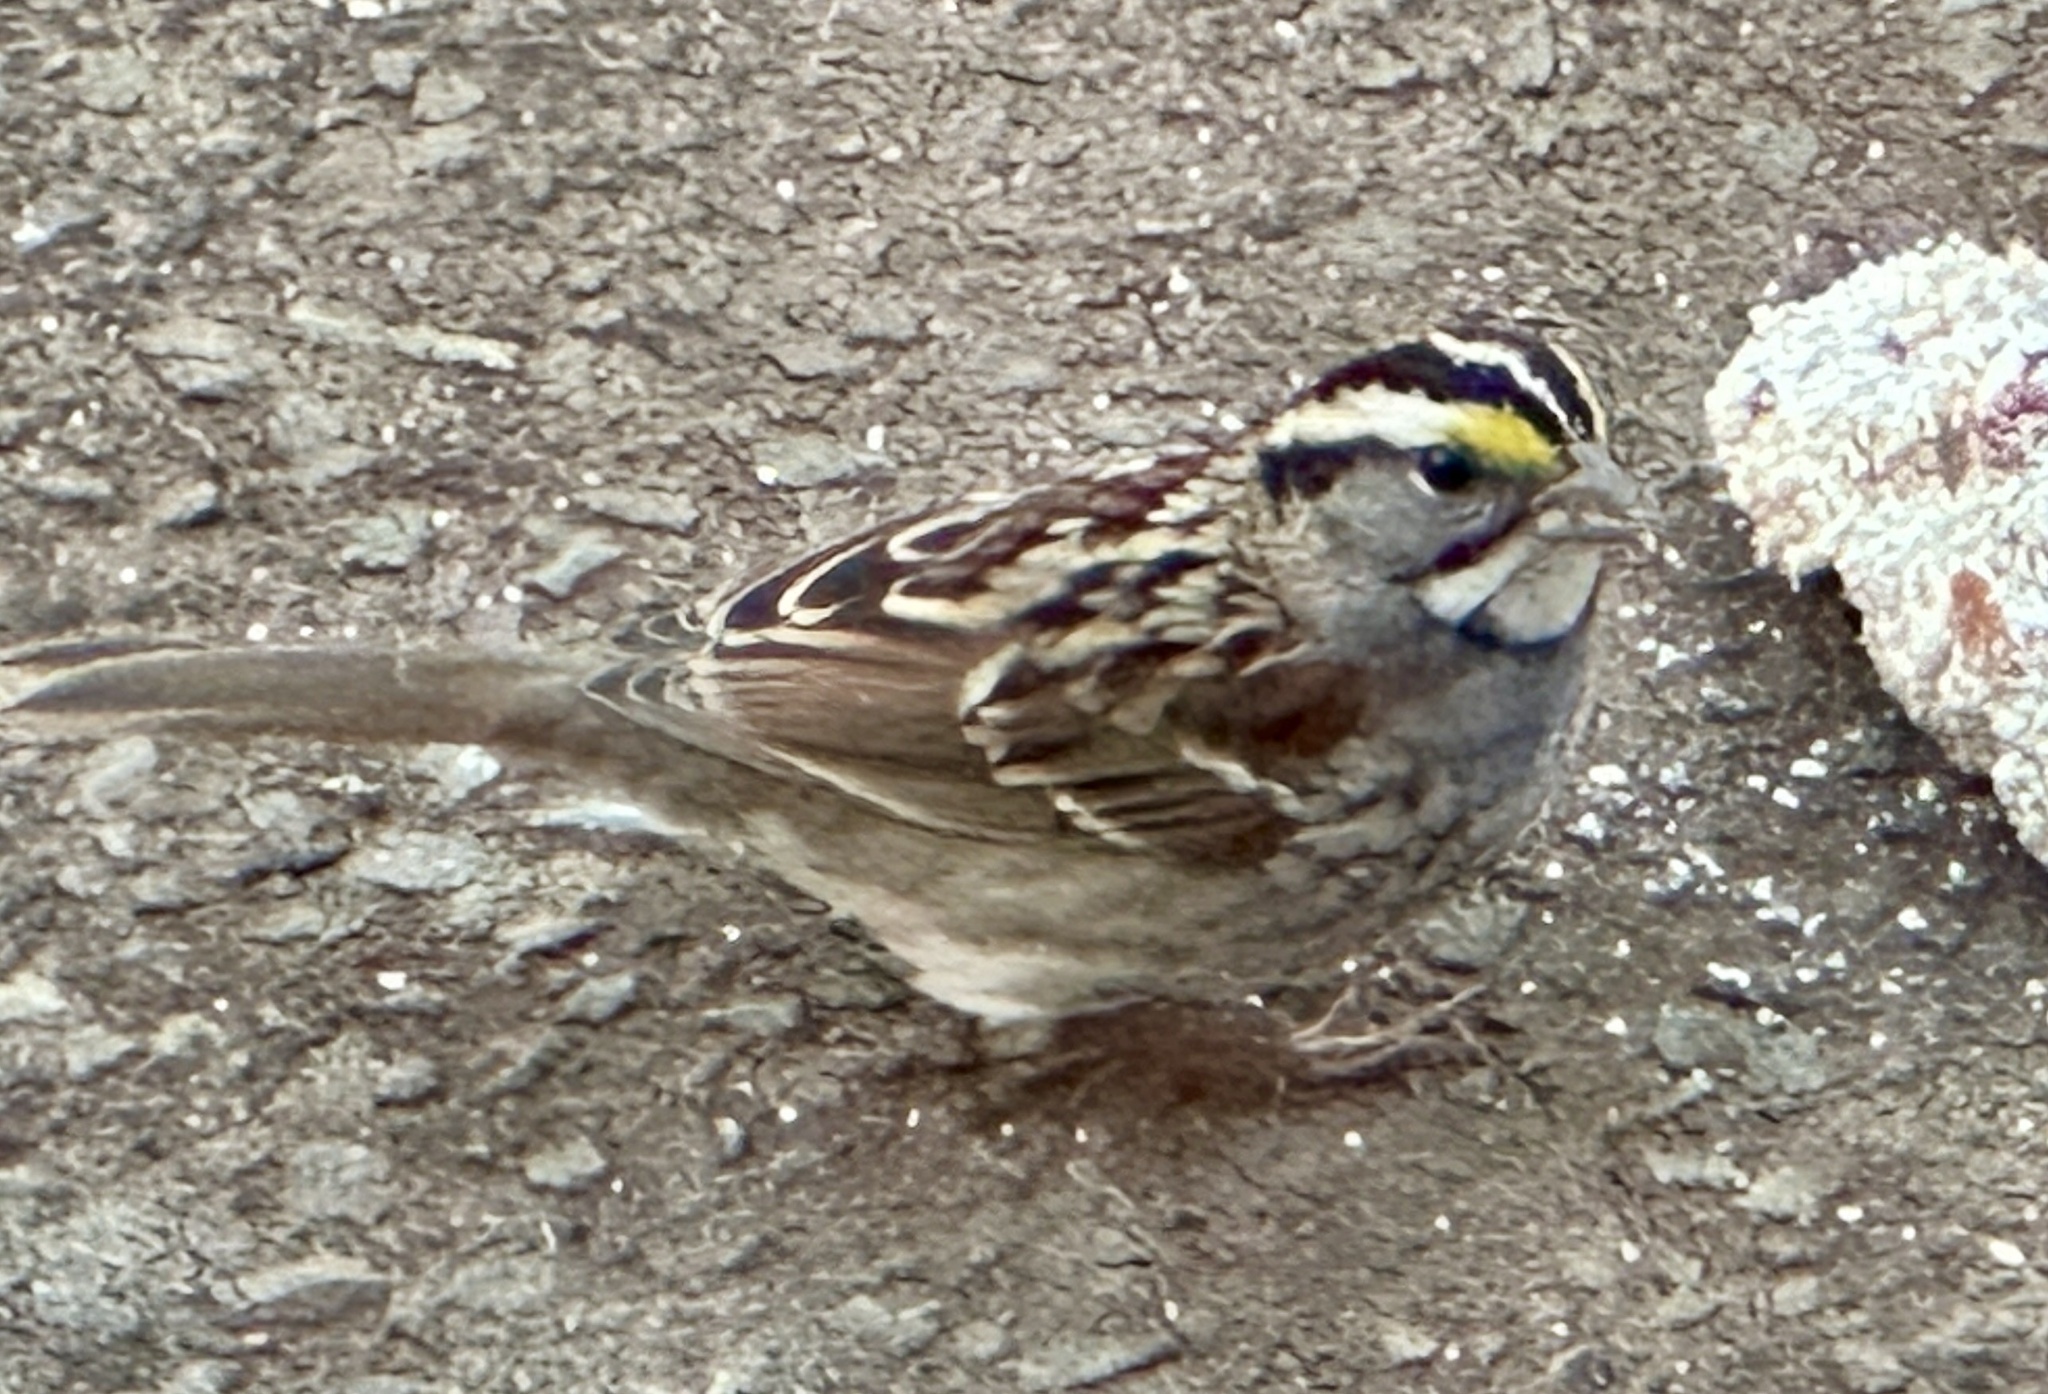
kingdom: Animalia
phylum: Chordata
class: Aves
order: Passeriformes
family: Passerellidae
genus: Zonotrichia
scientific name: Zonotrichia albicollis
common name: White-throated sparrow
